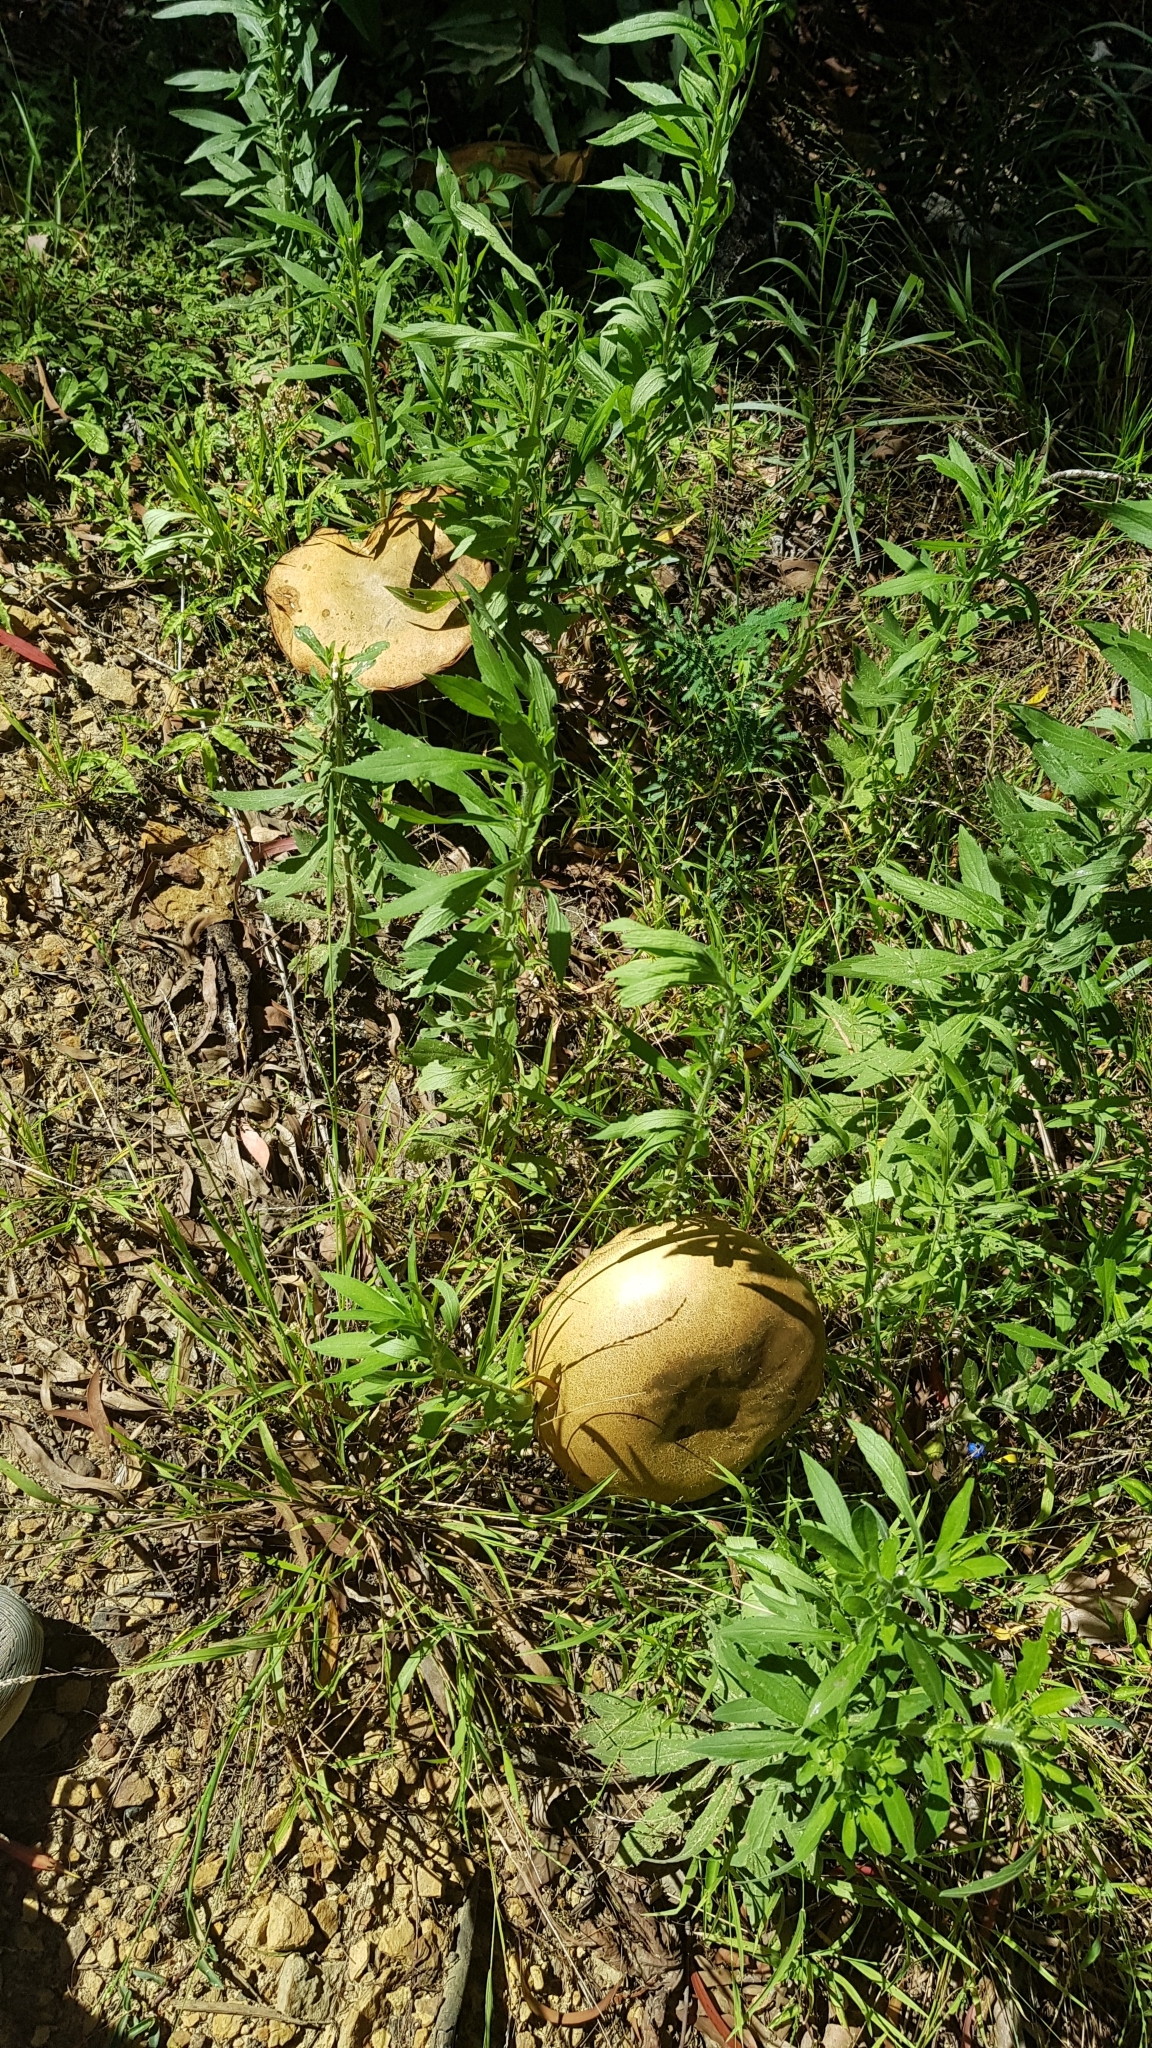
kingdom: Fungi
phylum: Basidiomycota
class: Agaricomycetes
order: Boletales
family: Boletinellaceae
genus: Phlebopus
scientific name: Phlebopus marginatus
